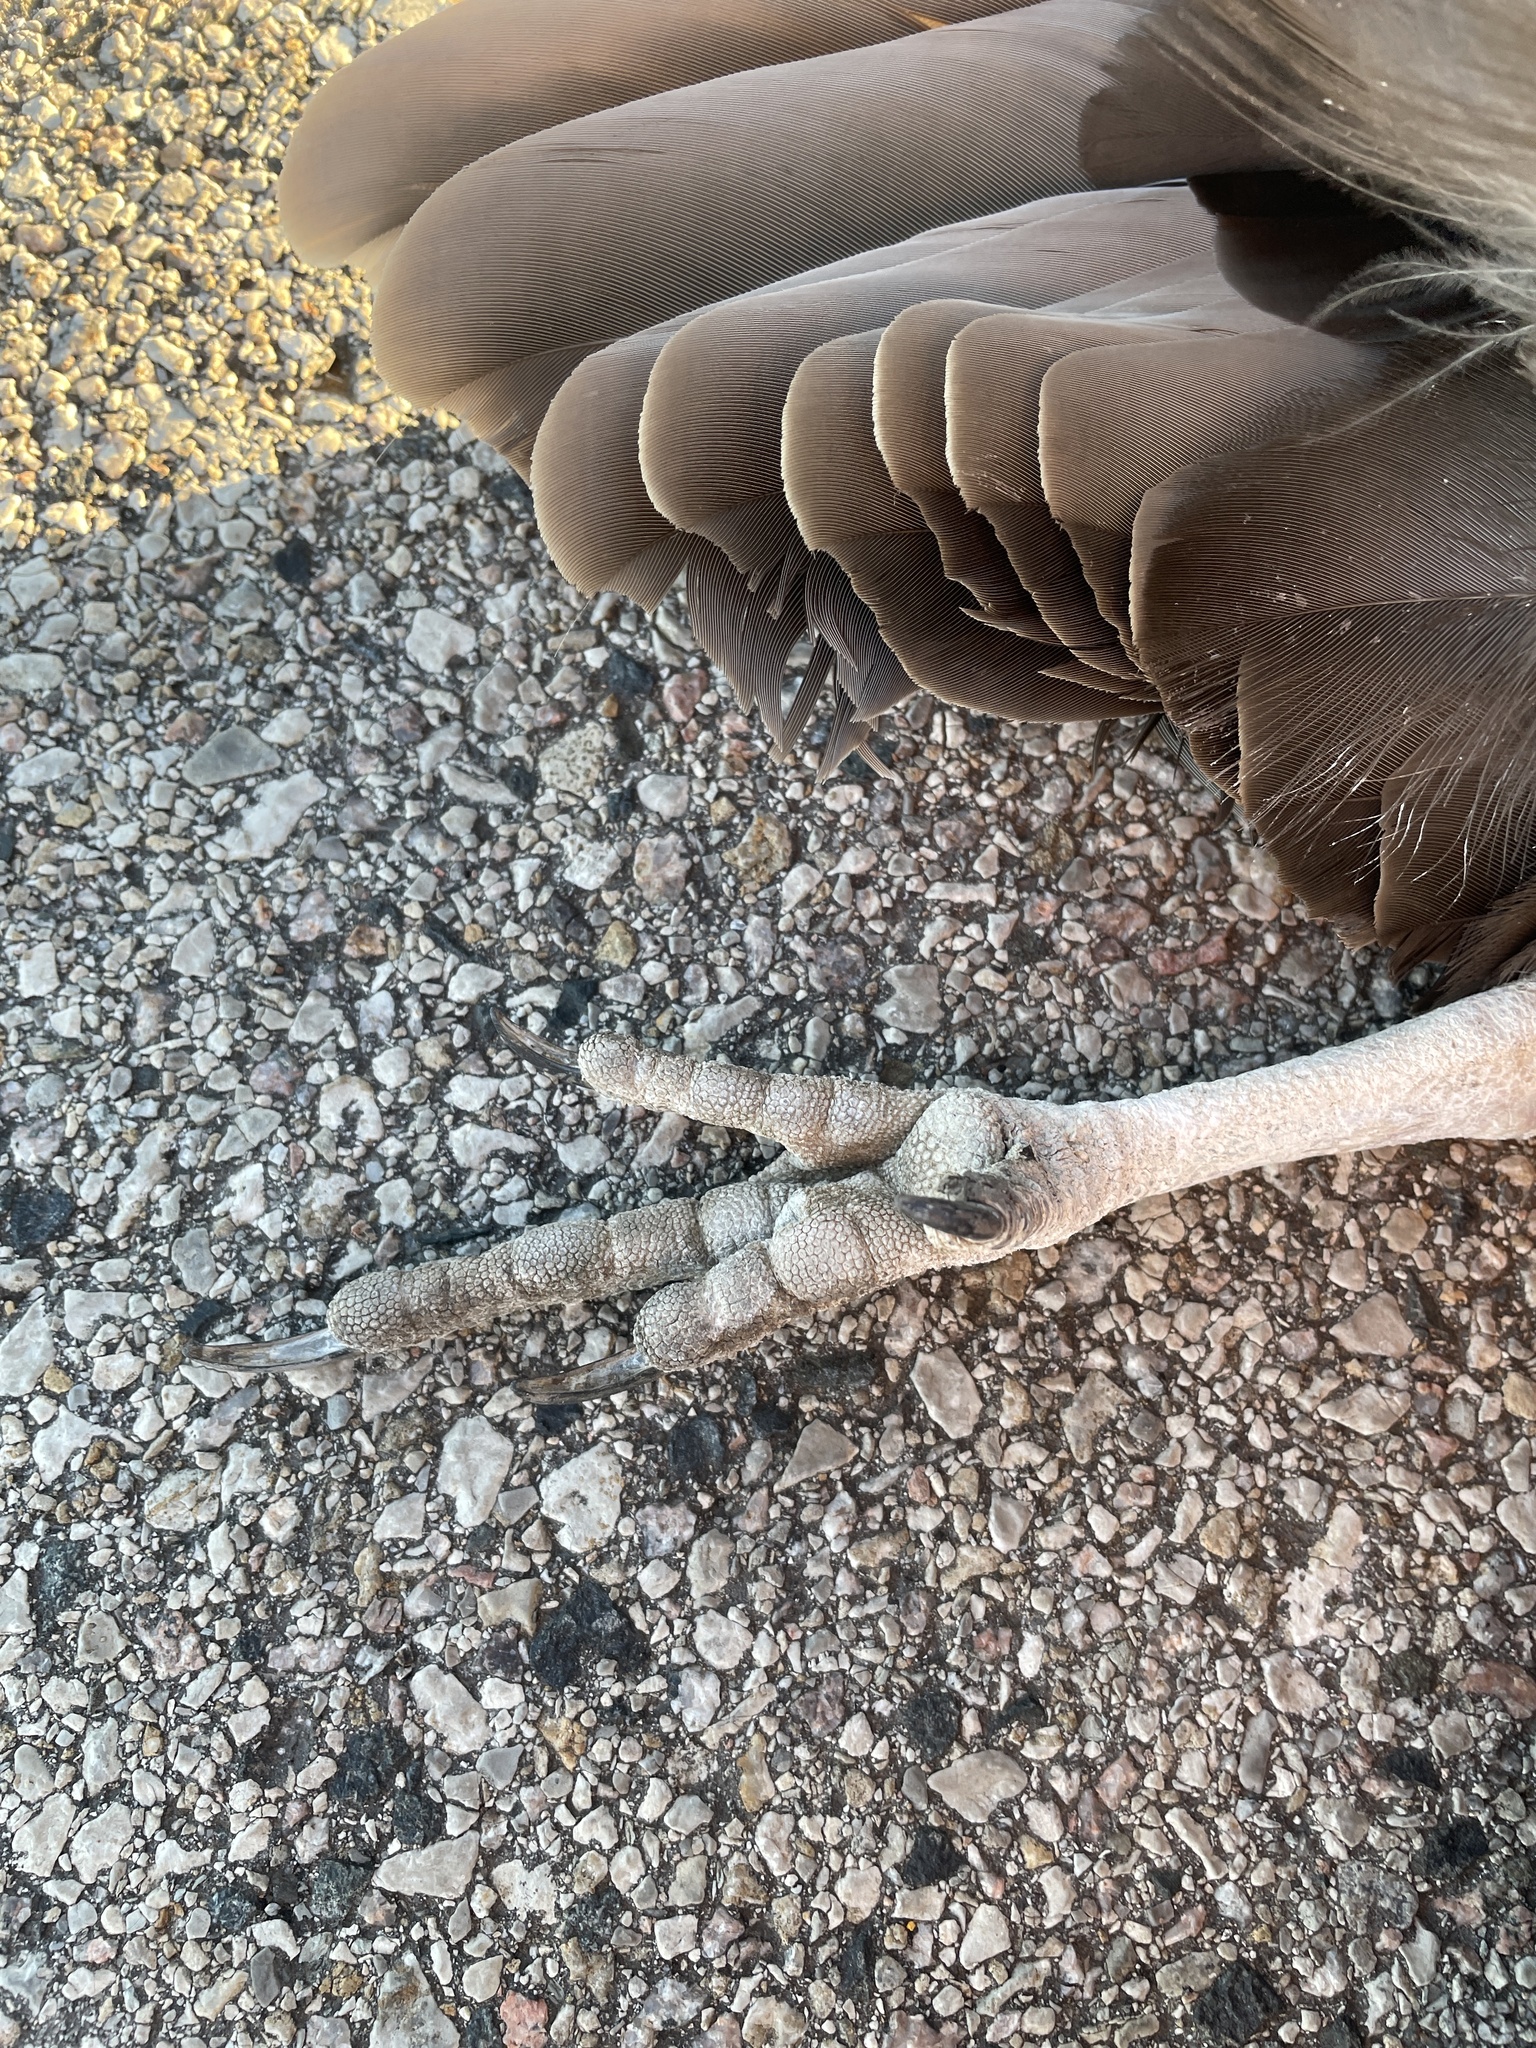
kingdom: Animalia
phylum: Chordata
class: Aves
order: Accipitriformes
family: Cathartidae
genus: Cathartes
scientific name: Cathartes aura
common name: Turkey vulture
